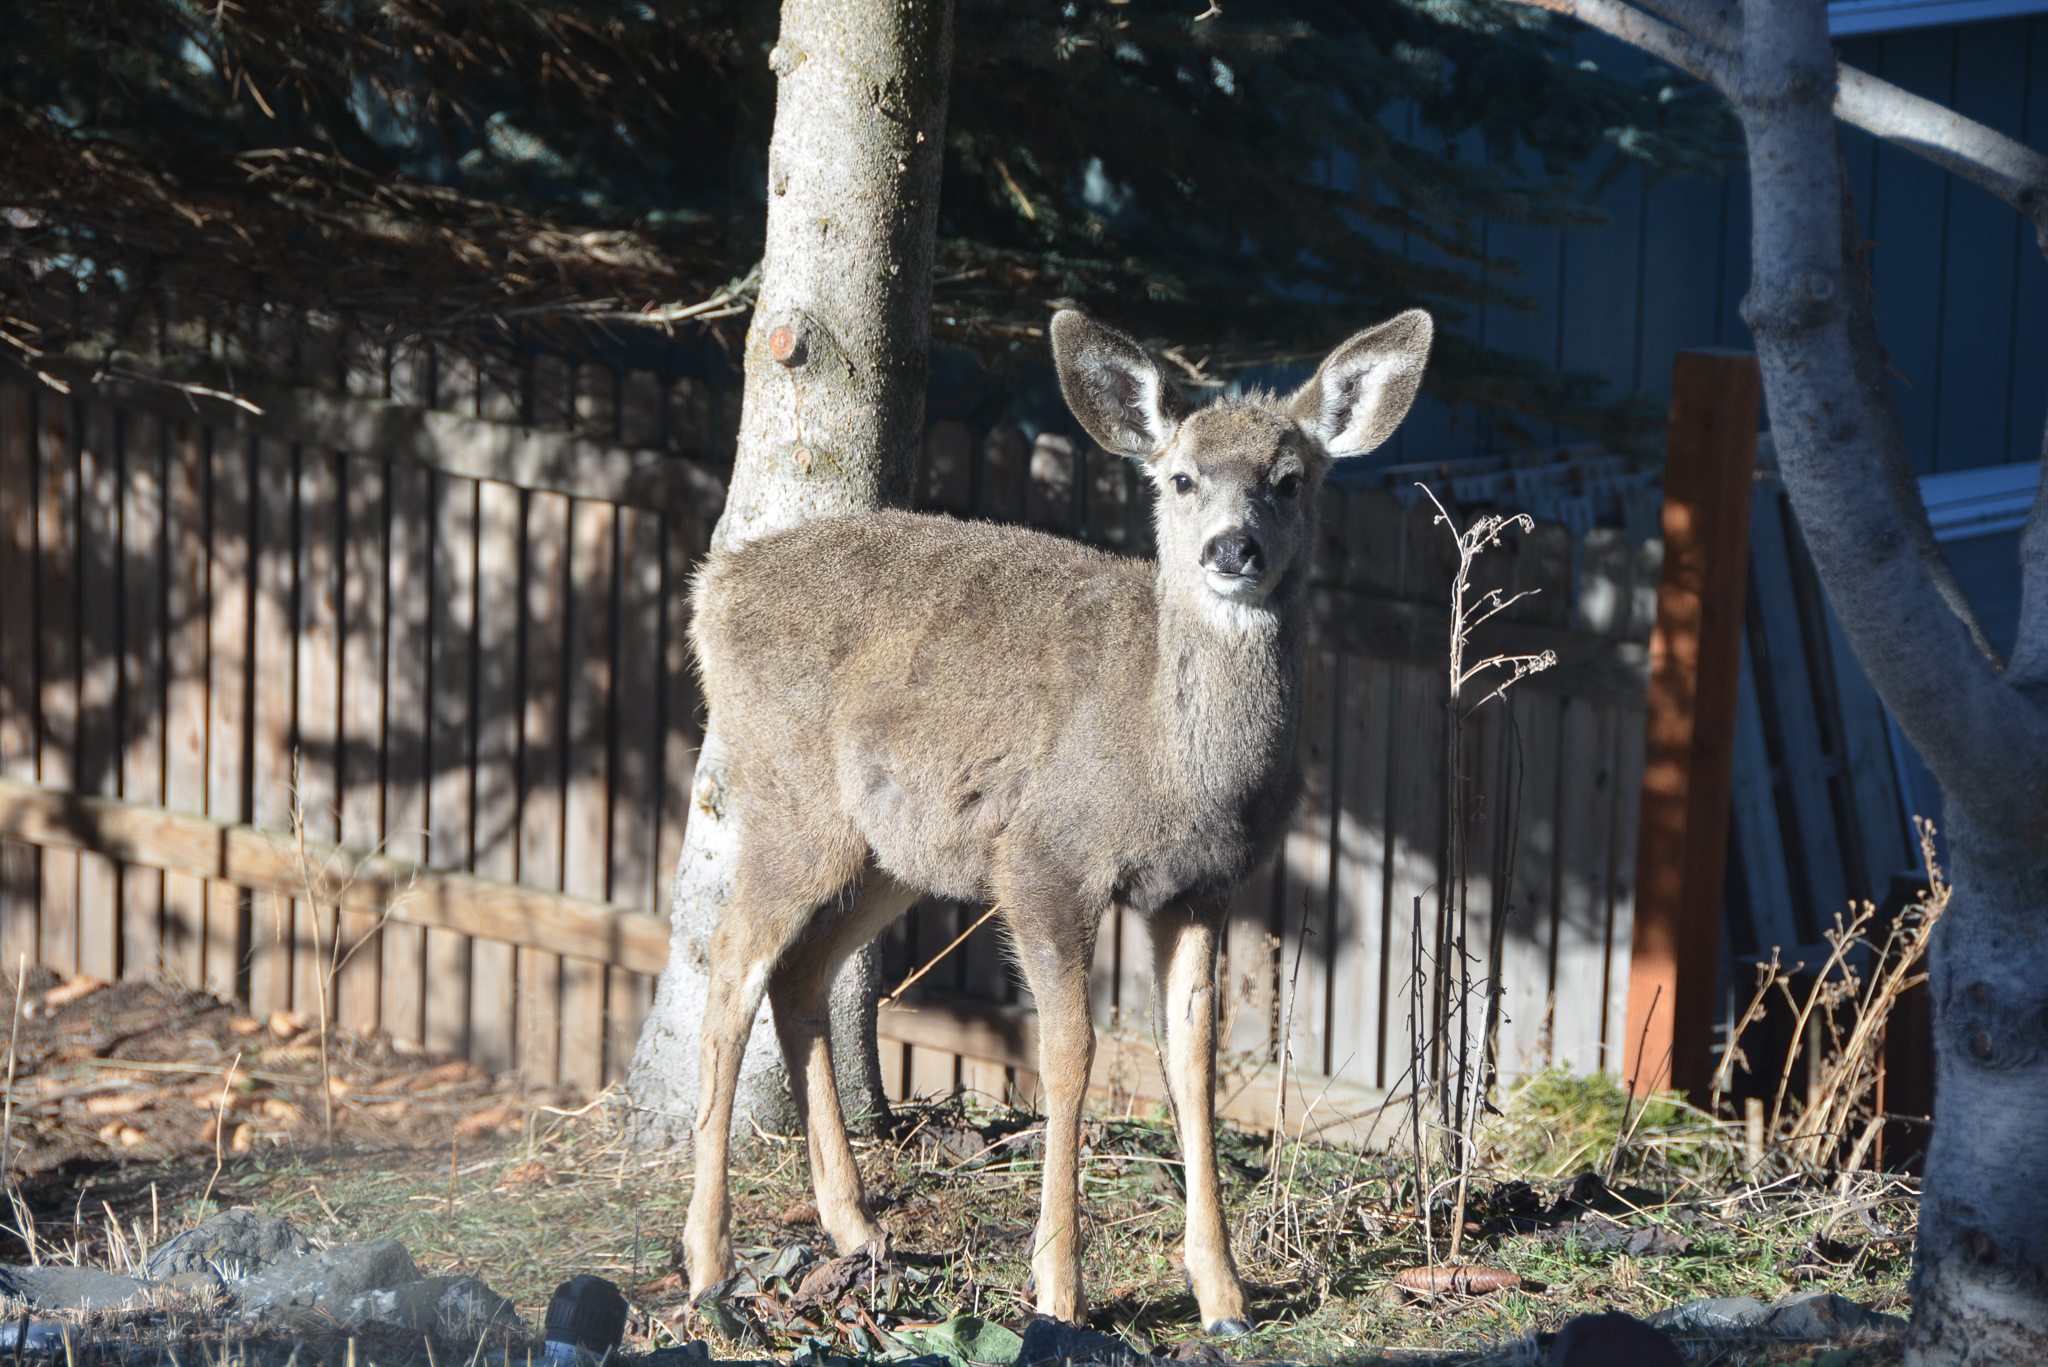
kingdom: Animalia
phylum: Chordata
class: Mammalia
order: Artiodactyla
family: Cervidae
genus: Odocoileus
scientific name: Odocoileus hemionus
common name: Mule deer
